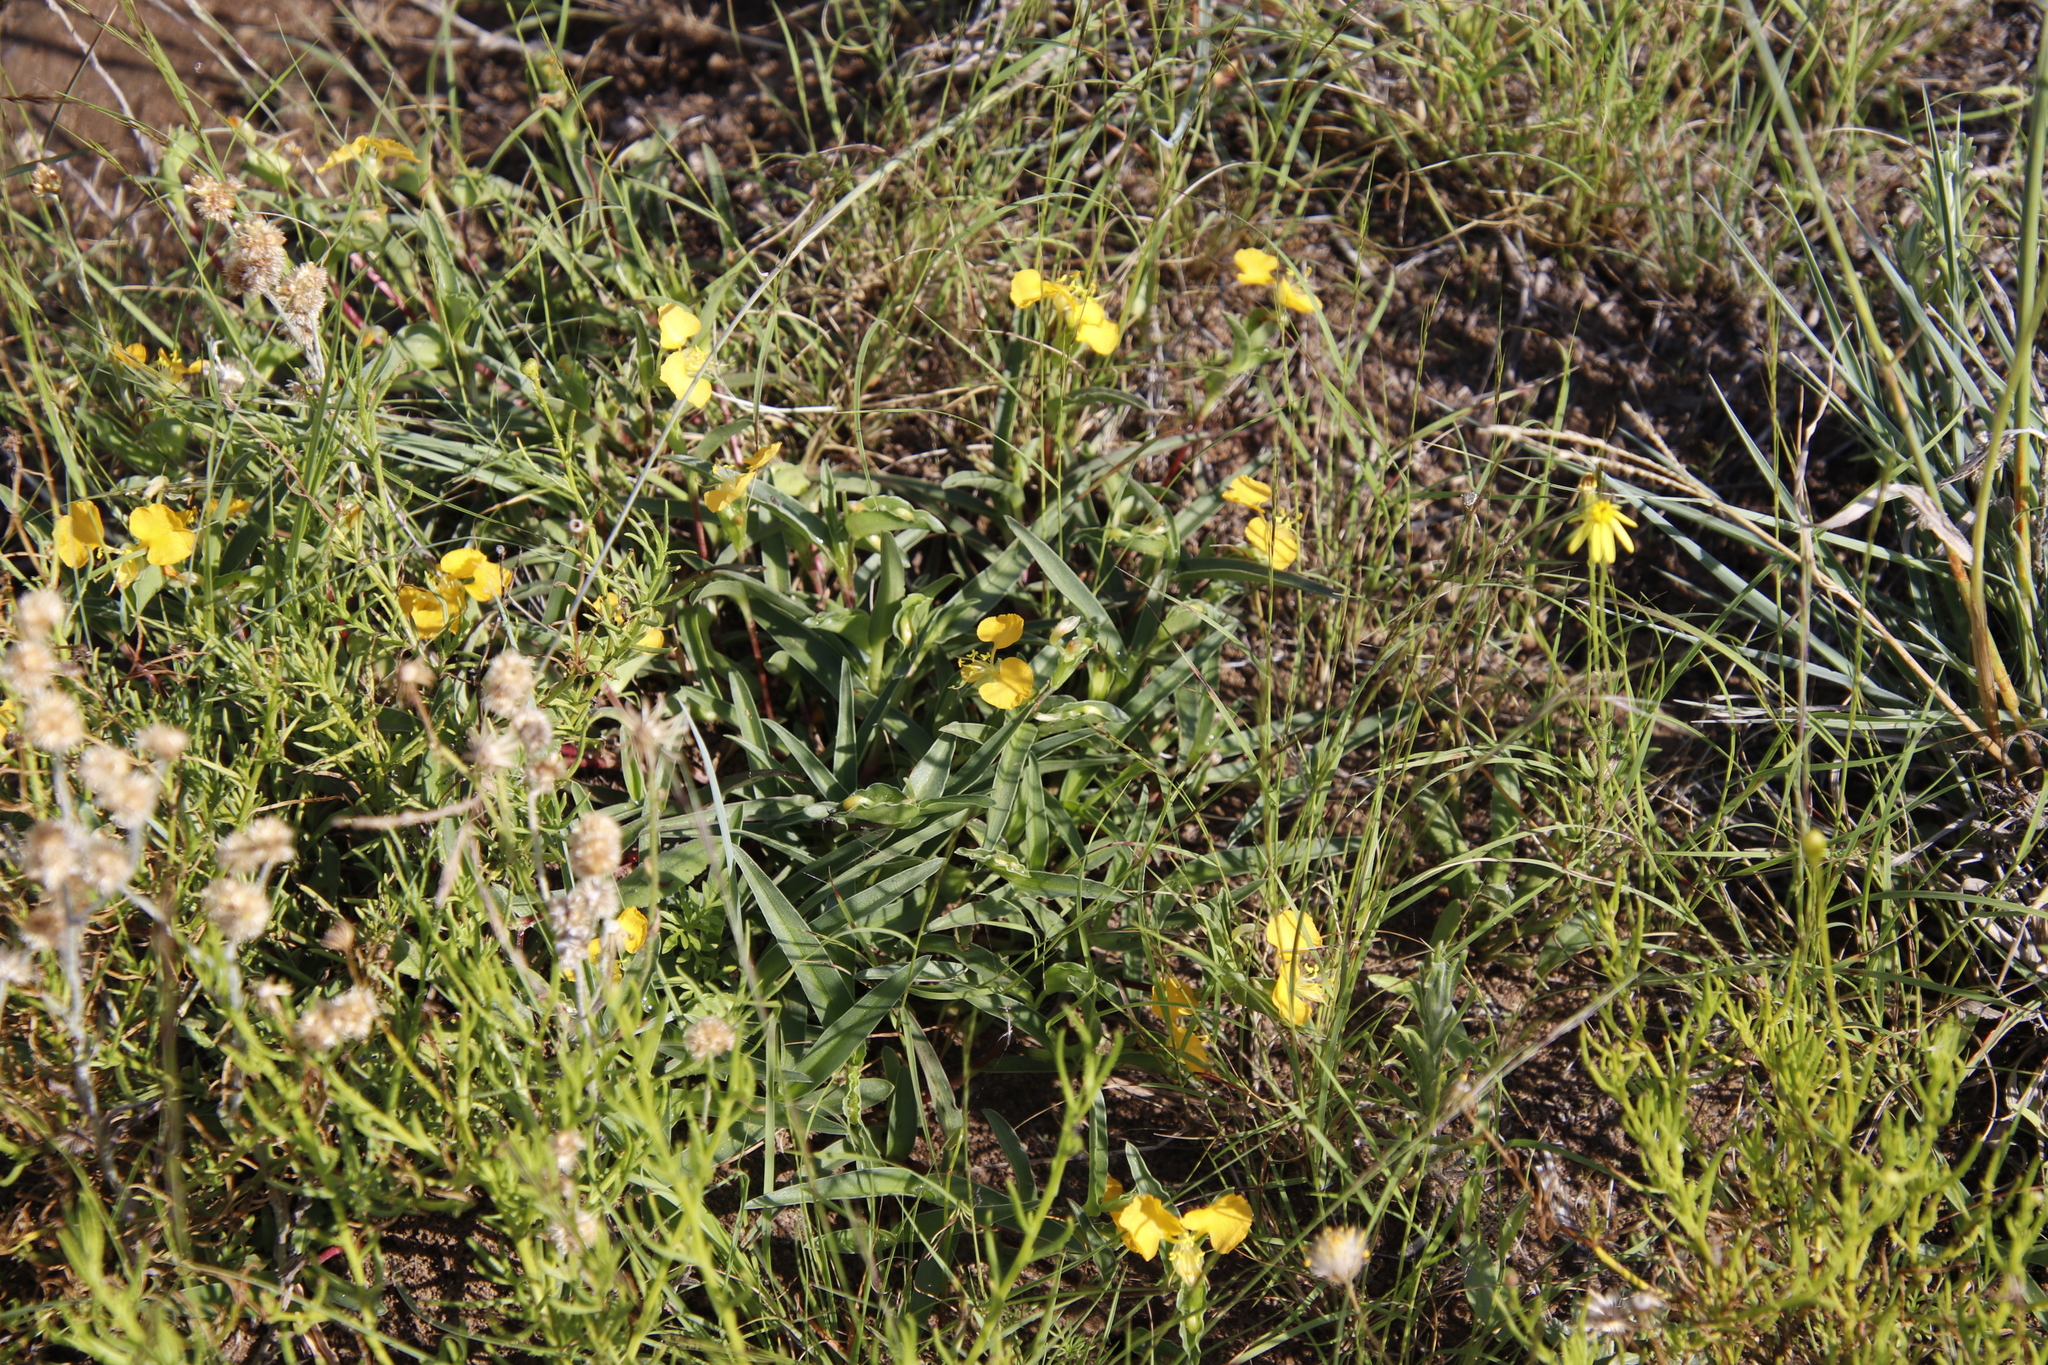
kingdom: Plantae
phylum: Tracheophyta
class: Liliopsida
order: Commelinales
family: Commelinaceae
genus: Commelina
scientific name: Commelina africana
